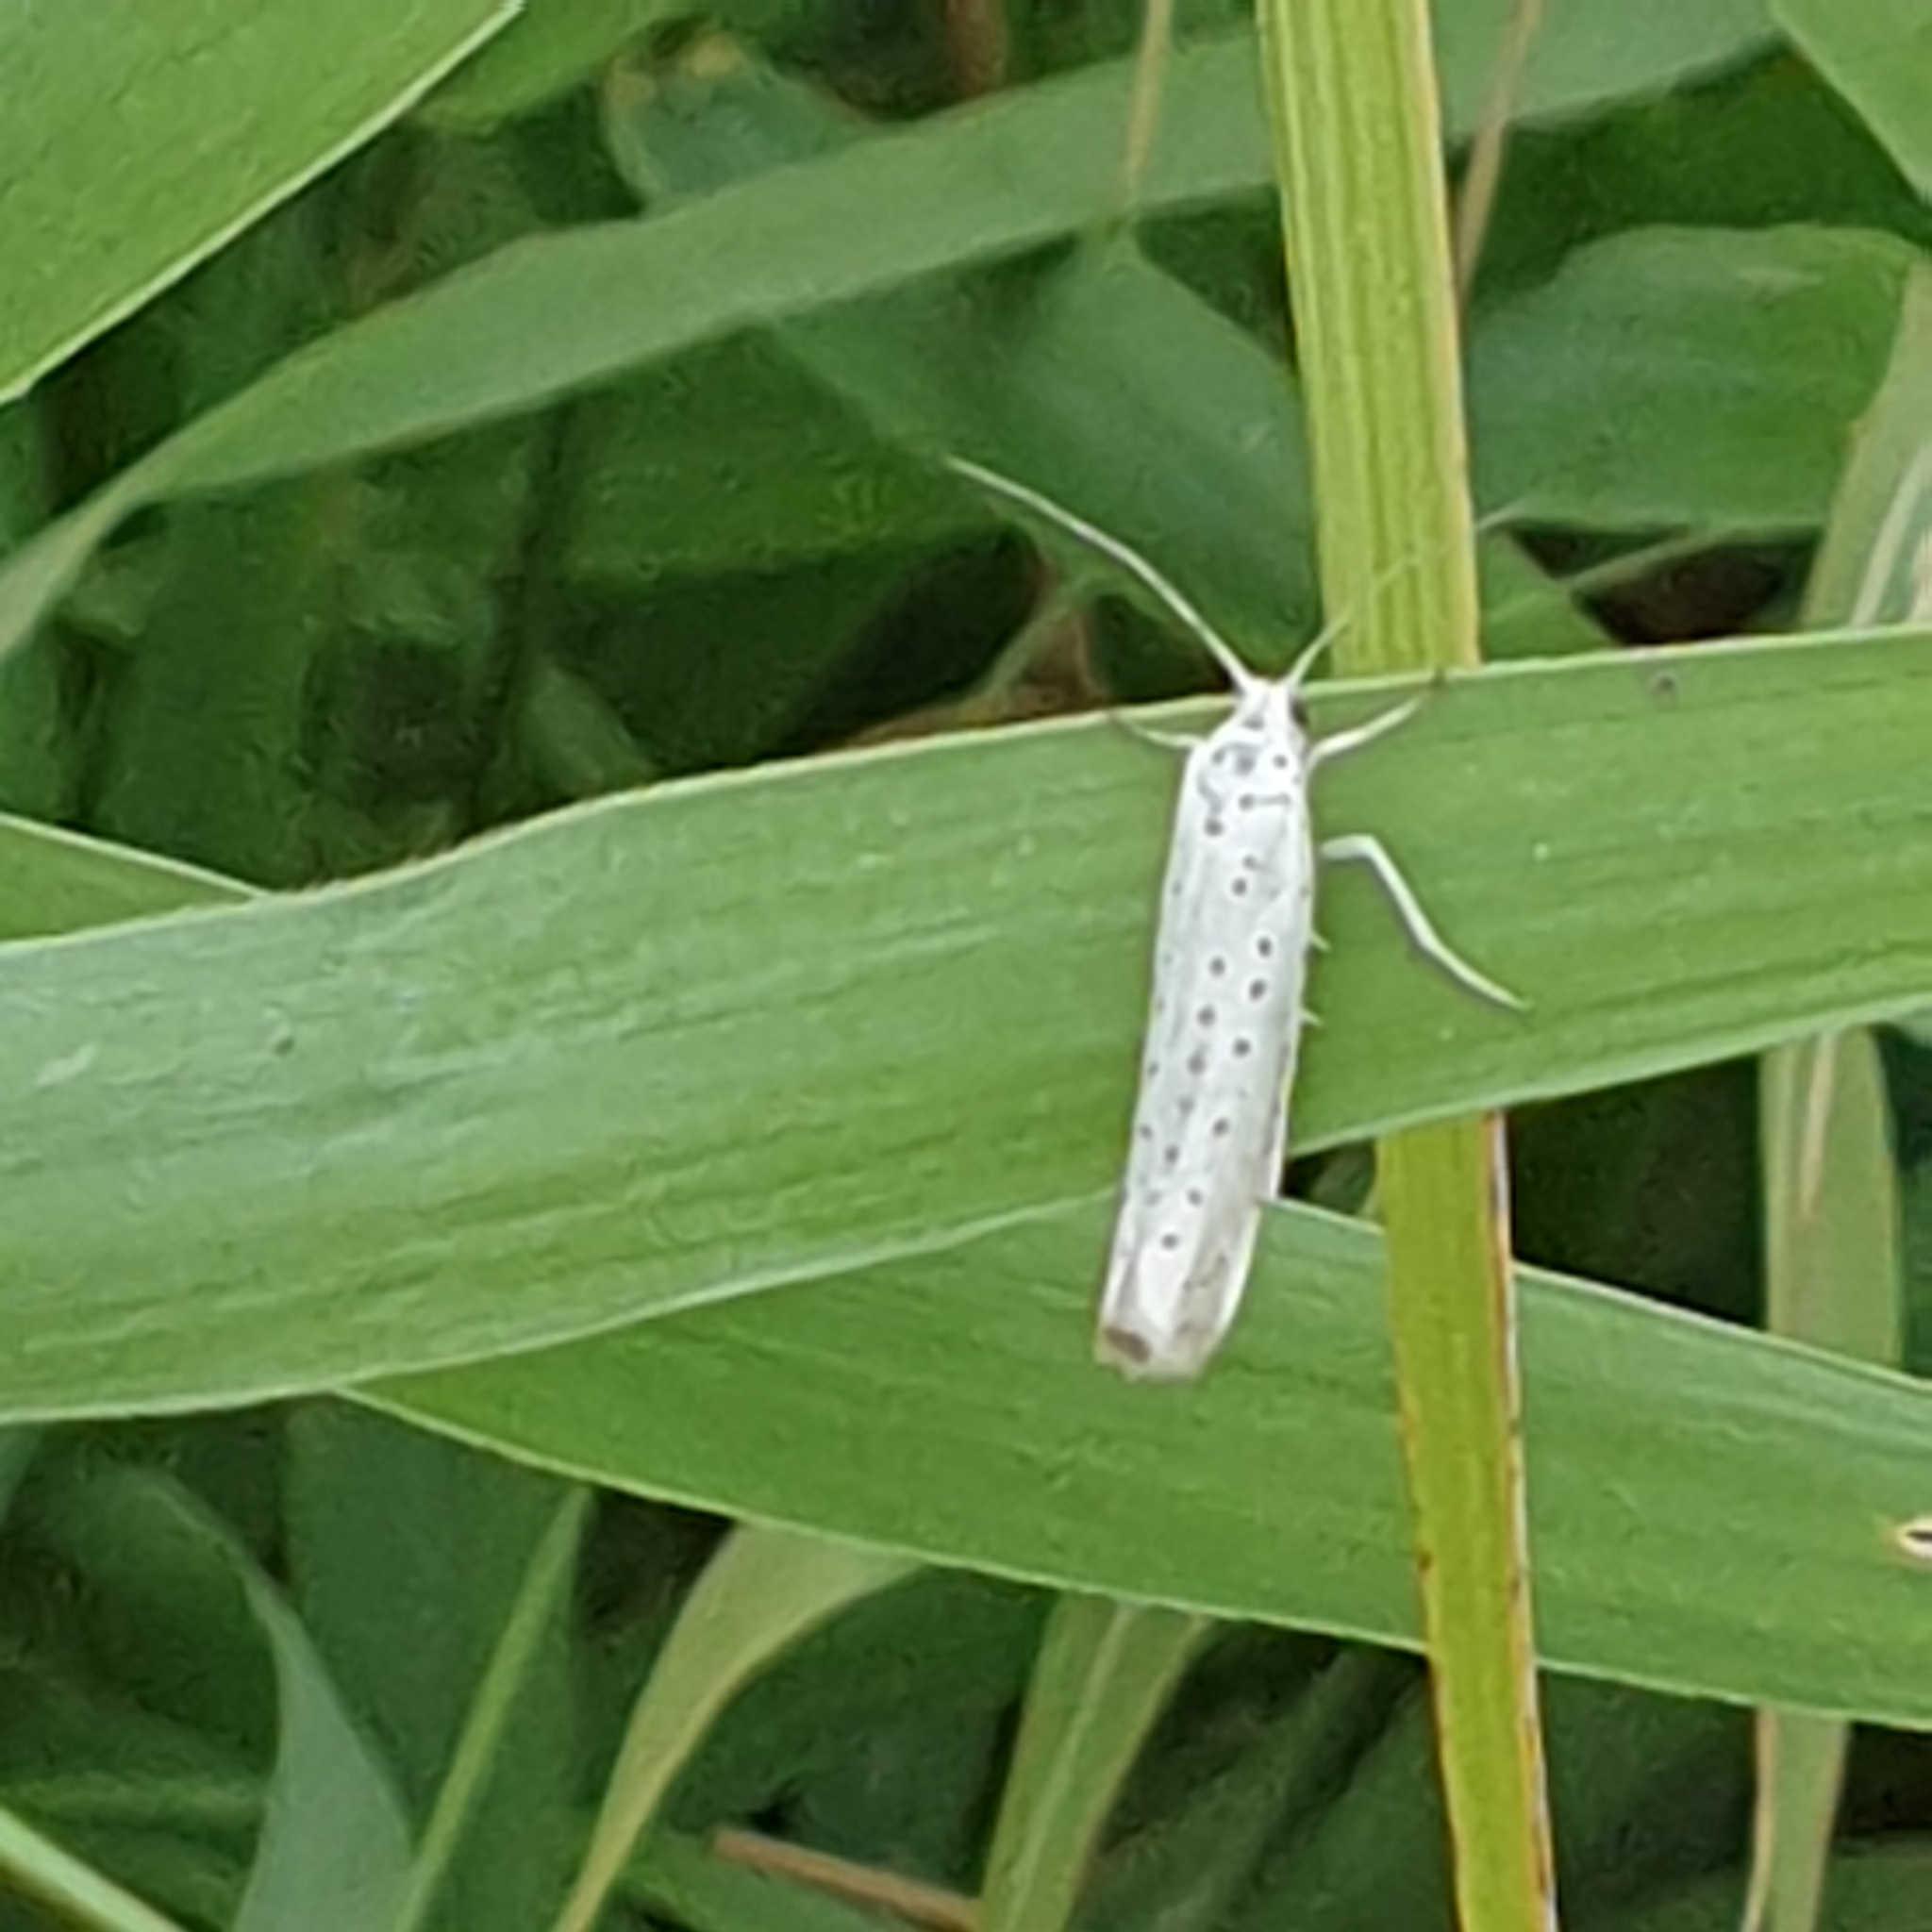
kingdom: Animalia
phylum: Arthropoda
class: Insecta
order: Lepidoptera
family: Yponomeutidae
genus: Yponomeuta
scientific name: Yponomeuta evonymella
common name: Bird-cherry ermine
